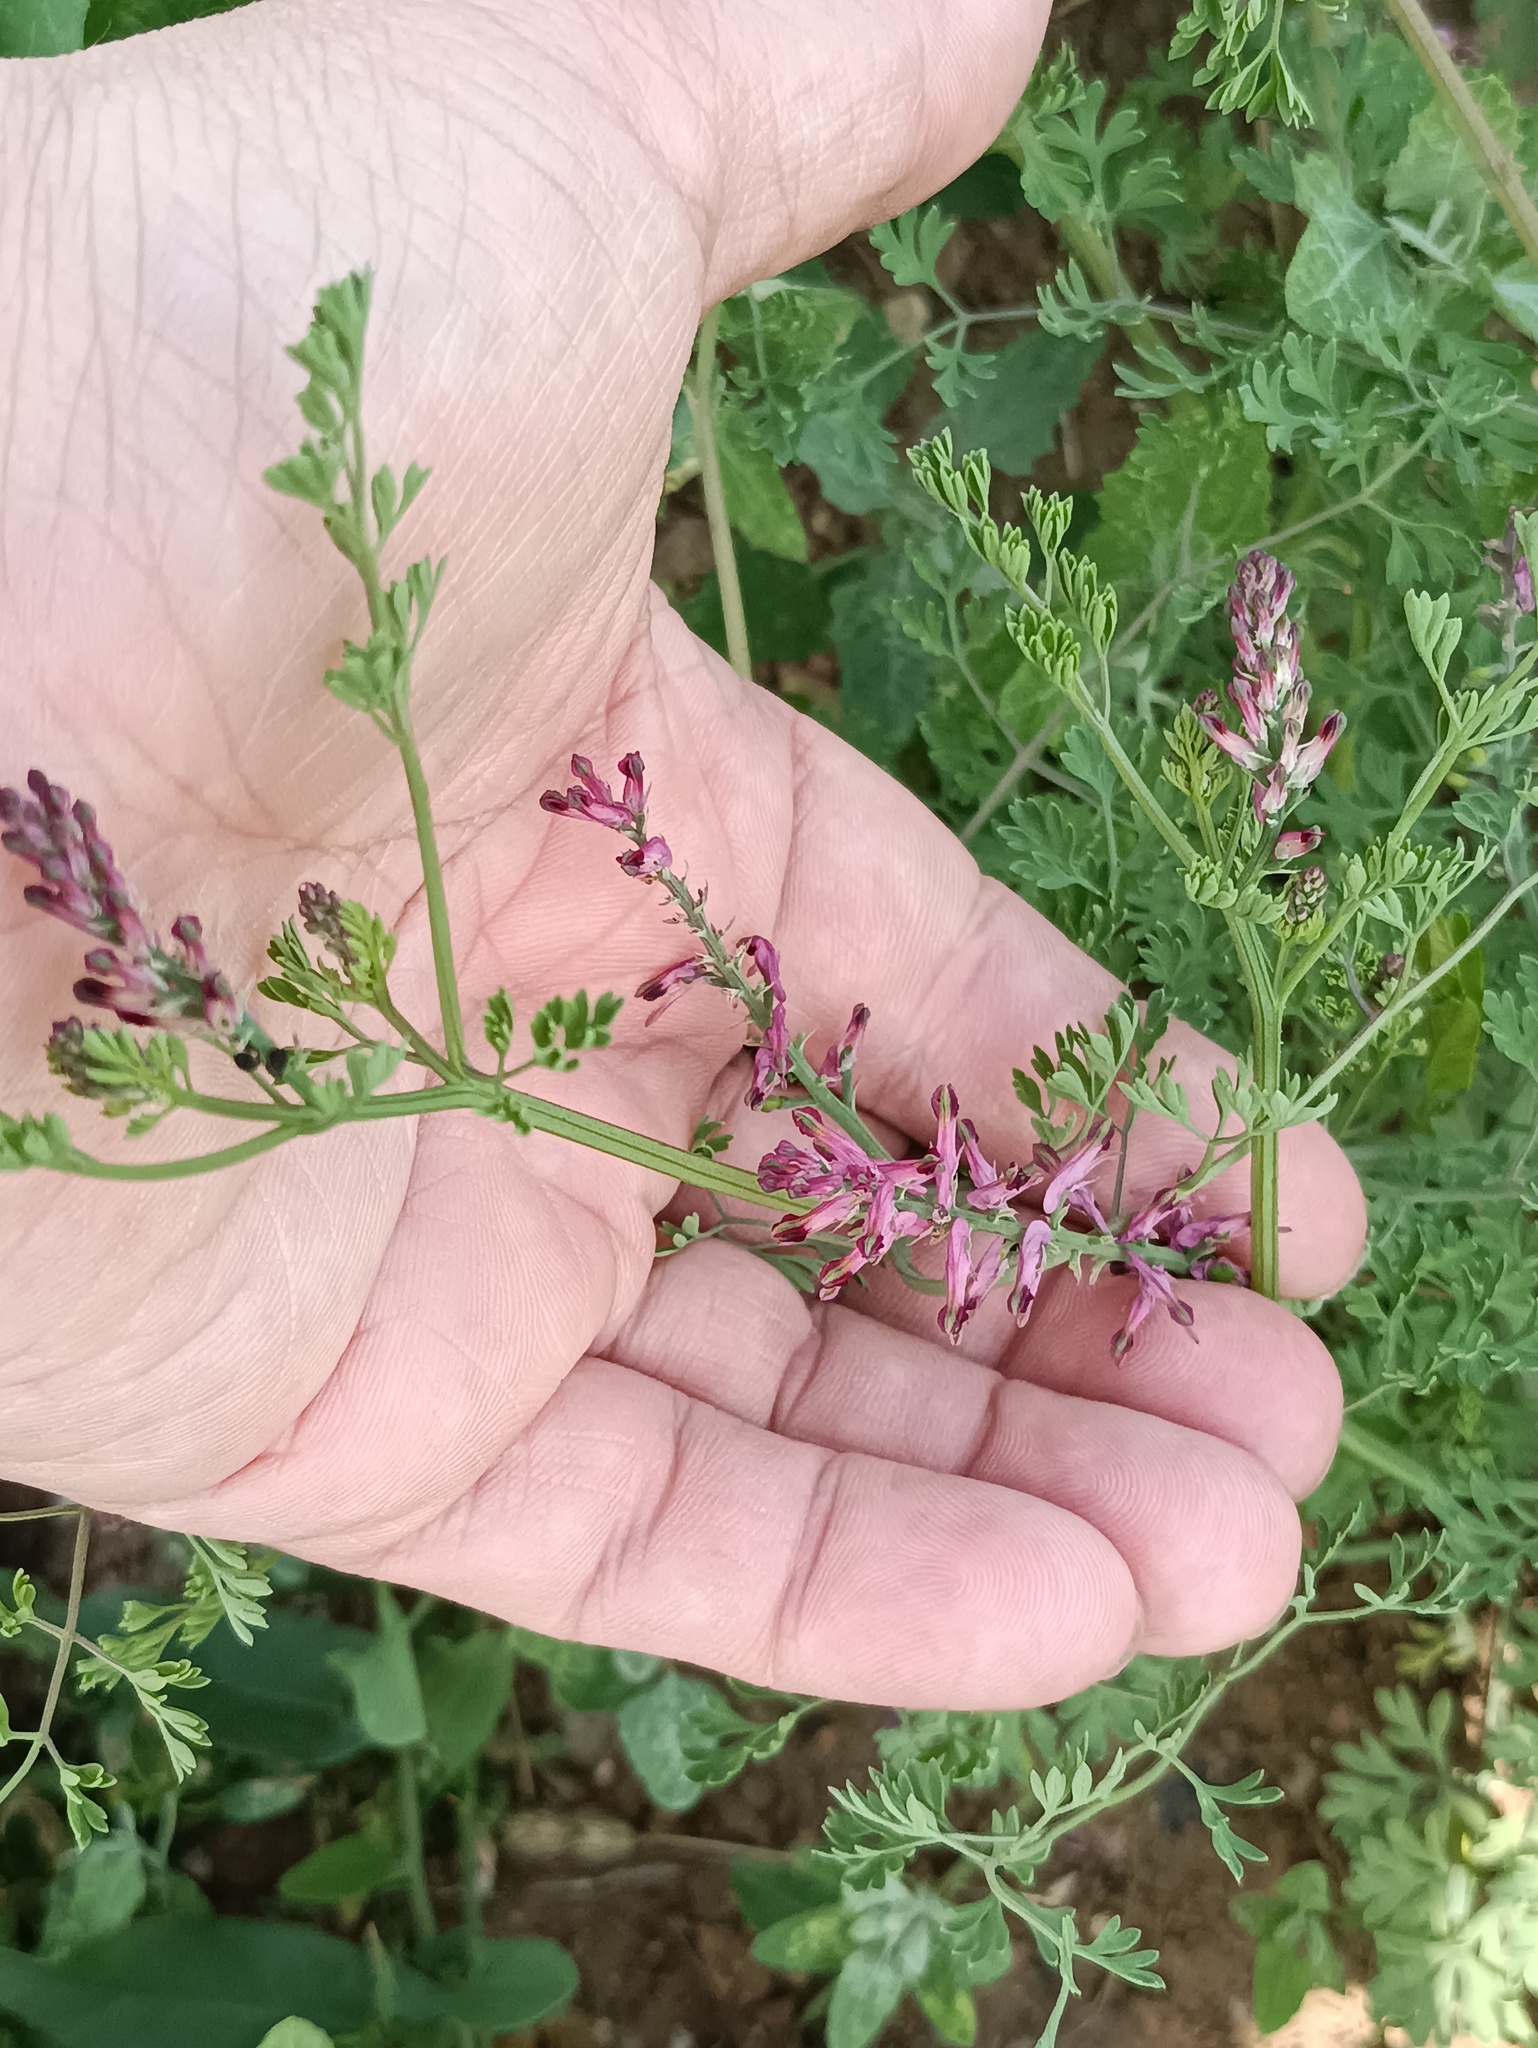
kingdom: Plantae
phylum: Tracheophyta
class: Magnoliopsida
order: Ranunculales
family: Papaveraceae
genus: Fumaria
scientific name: Fumaria officinalis
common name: Common fumitory
